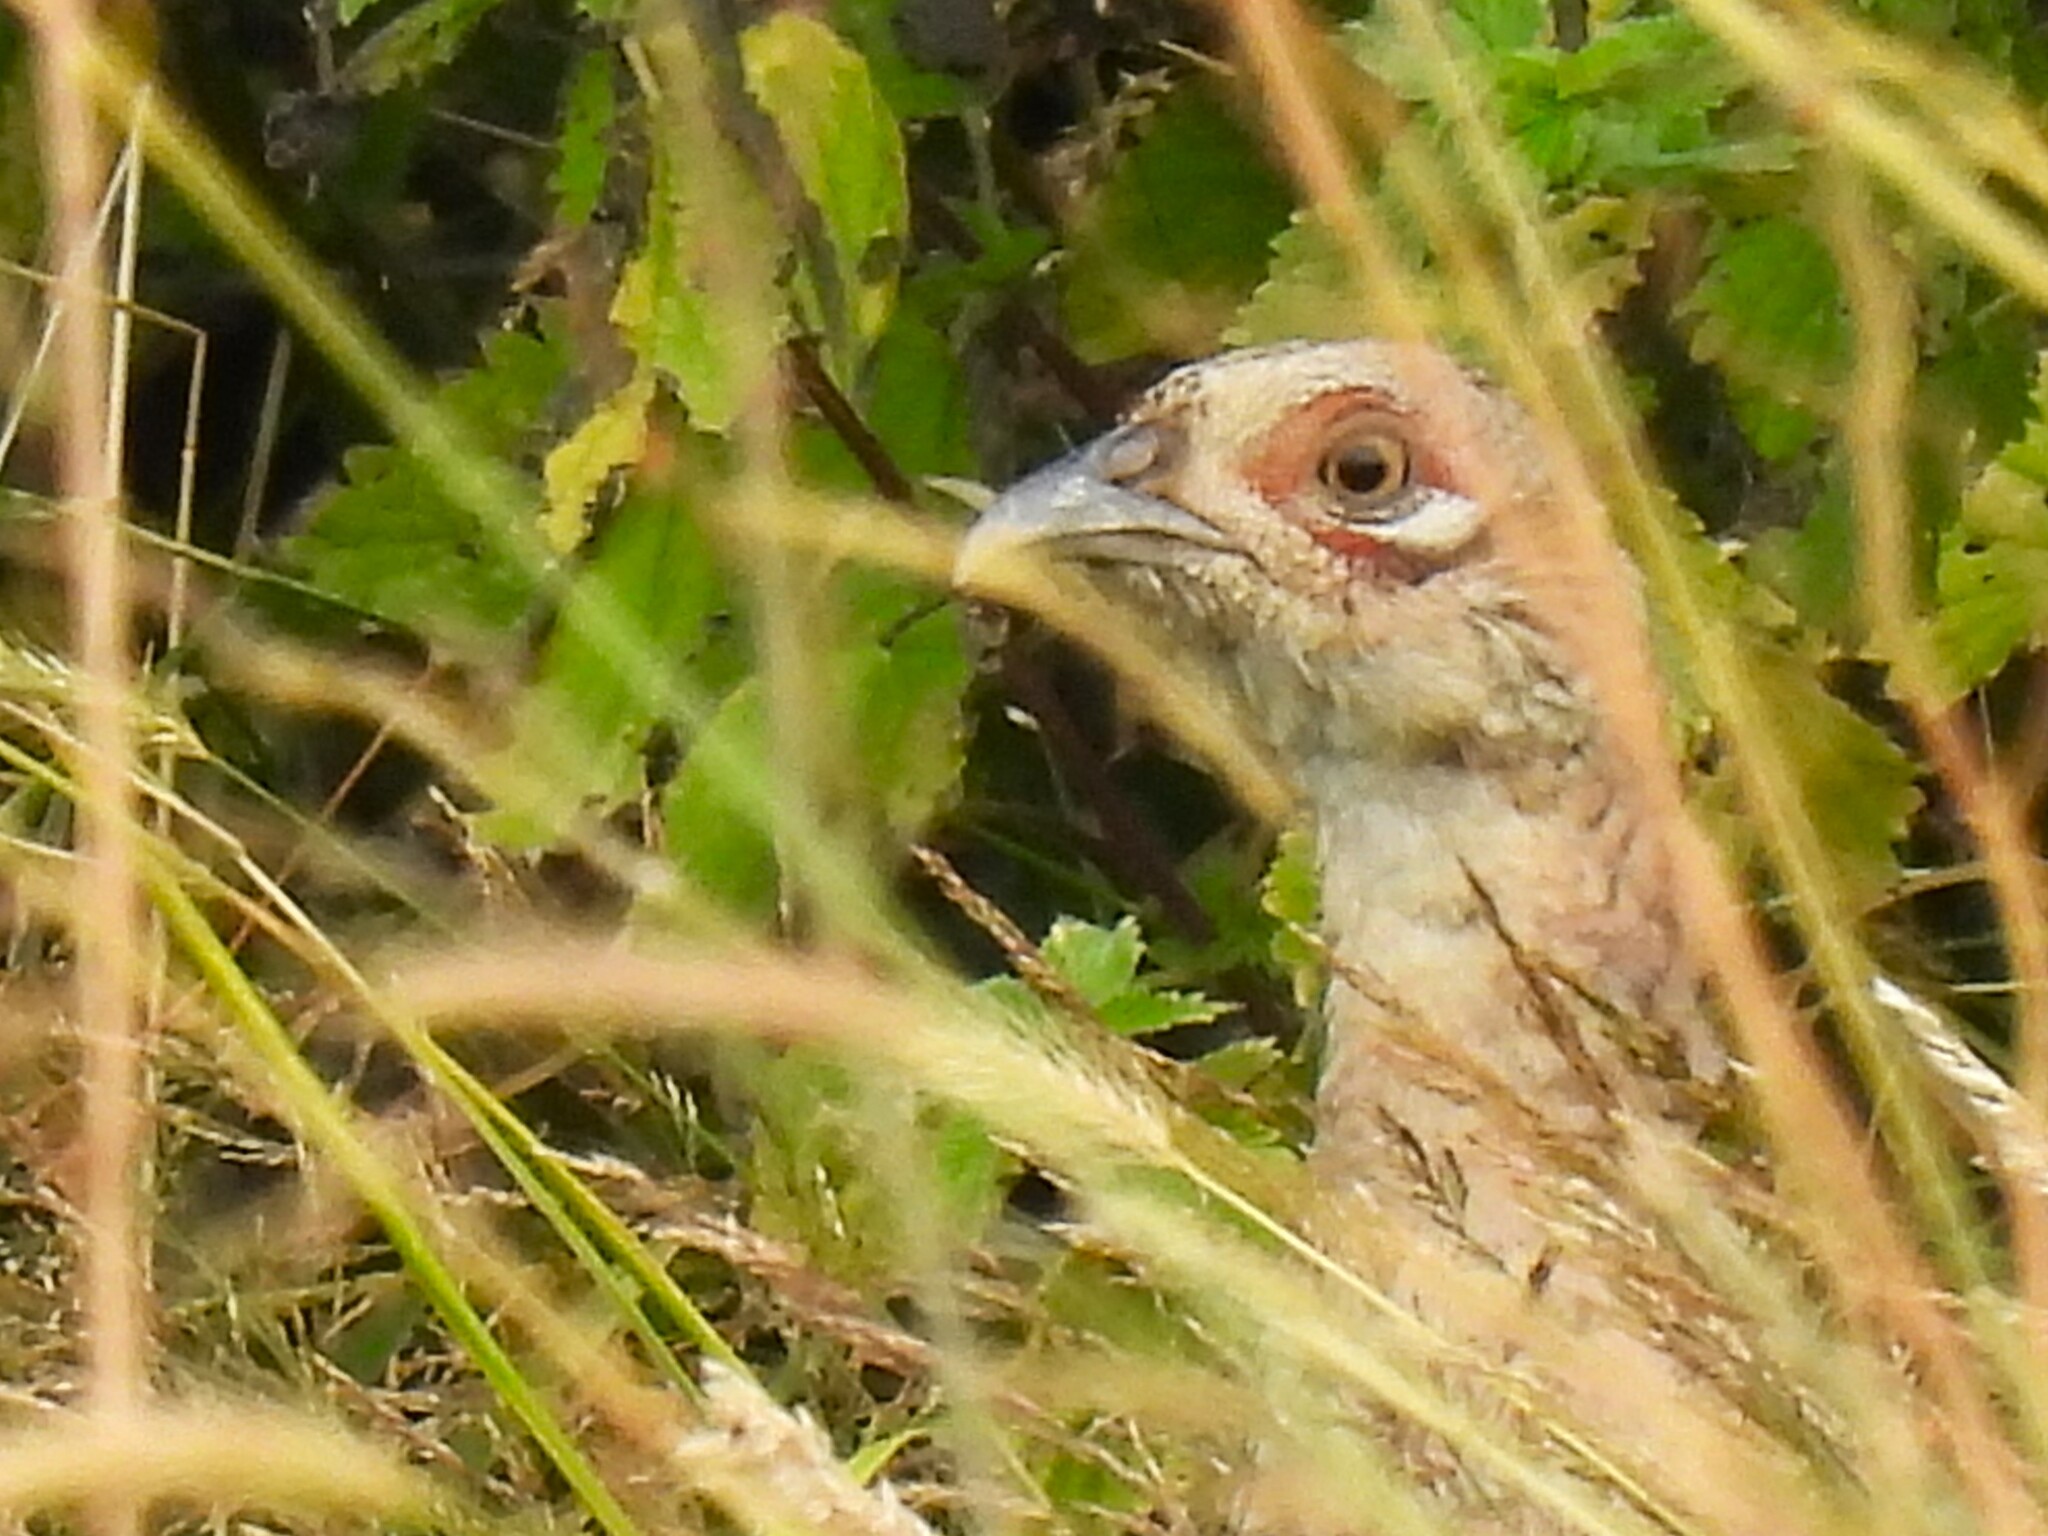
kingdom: Animalia
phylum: Chordata
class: Aves
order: Galliformes
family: Phasianidae
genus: Phasianus
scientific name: Phasianus colchicus
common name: Common pheasant
